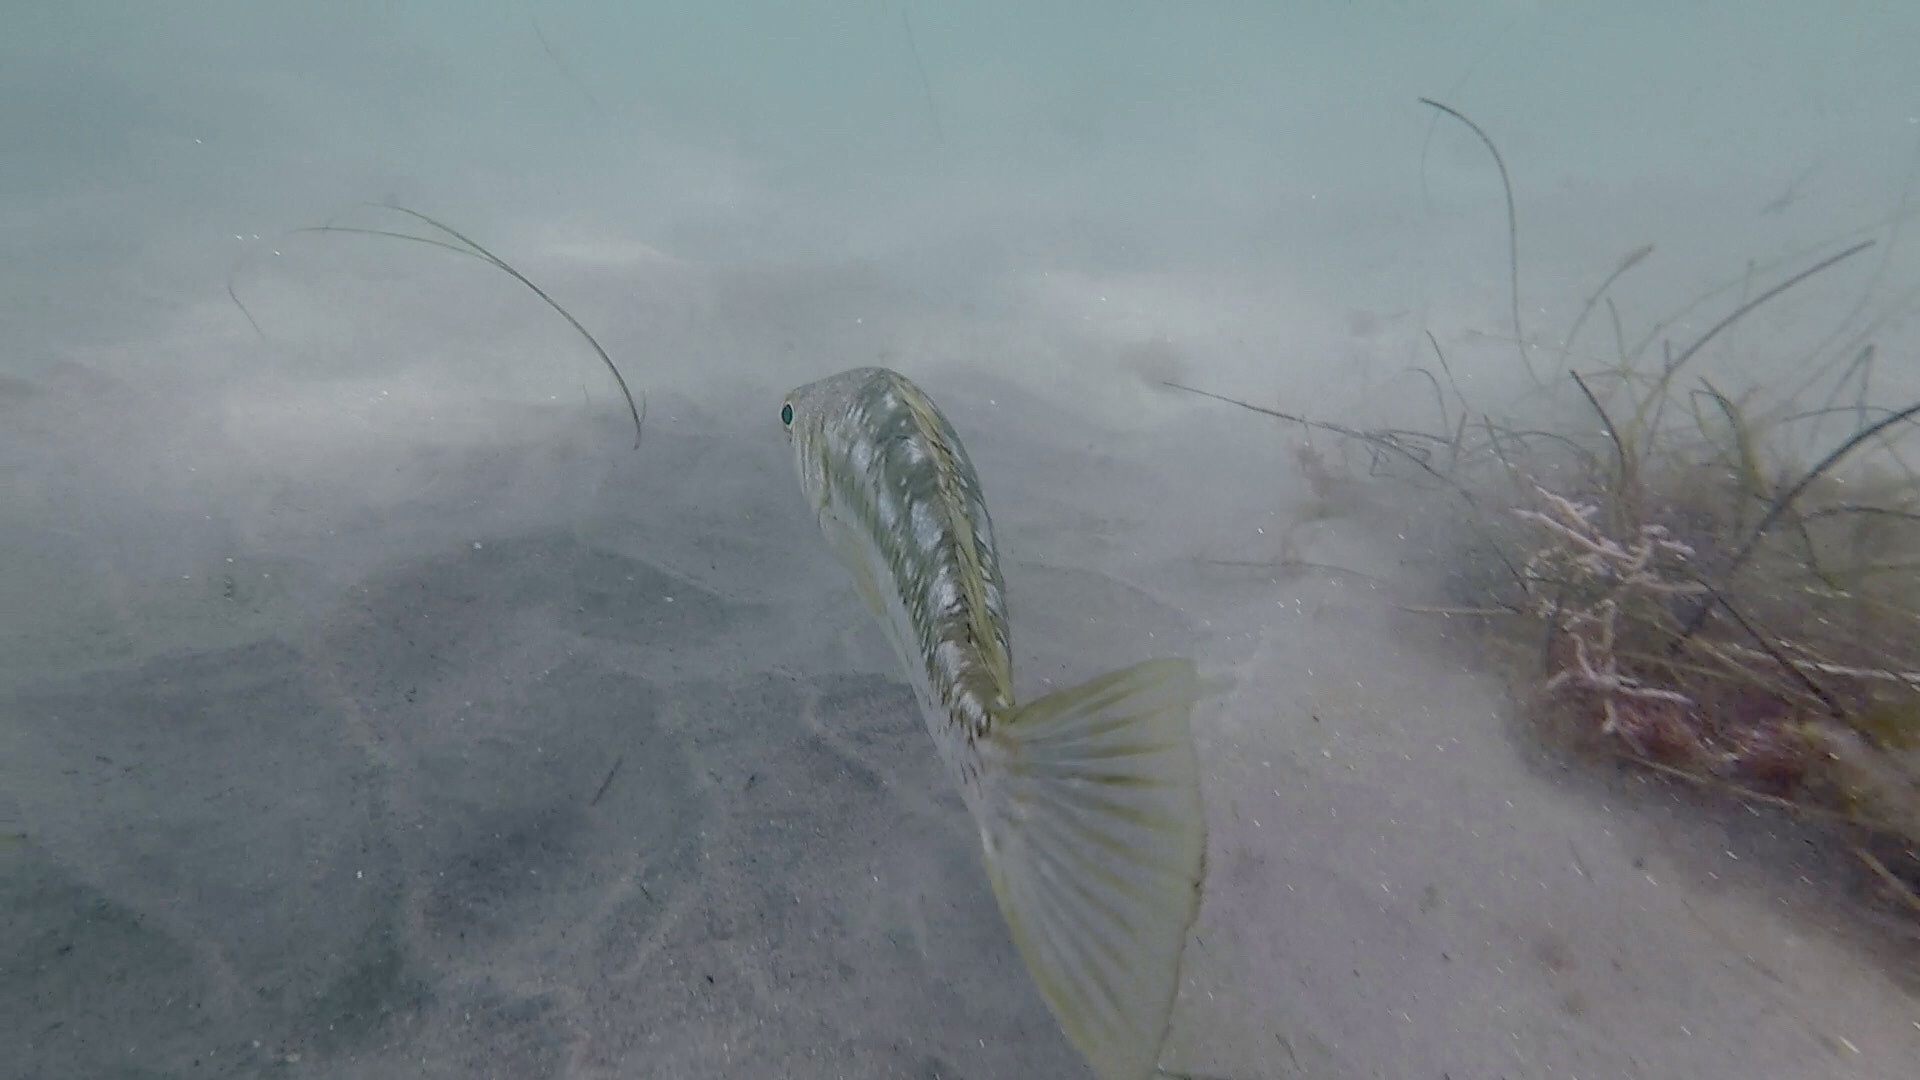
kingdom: Animalia
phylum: Chordata
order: Perciformes
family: Serranidae
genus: Paralabrax
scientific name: Paralabrax clathratus
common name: Kelp bass
